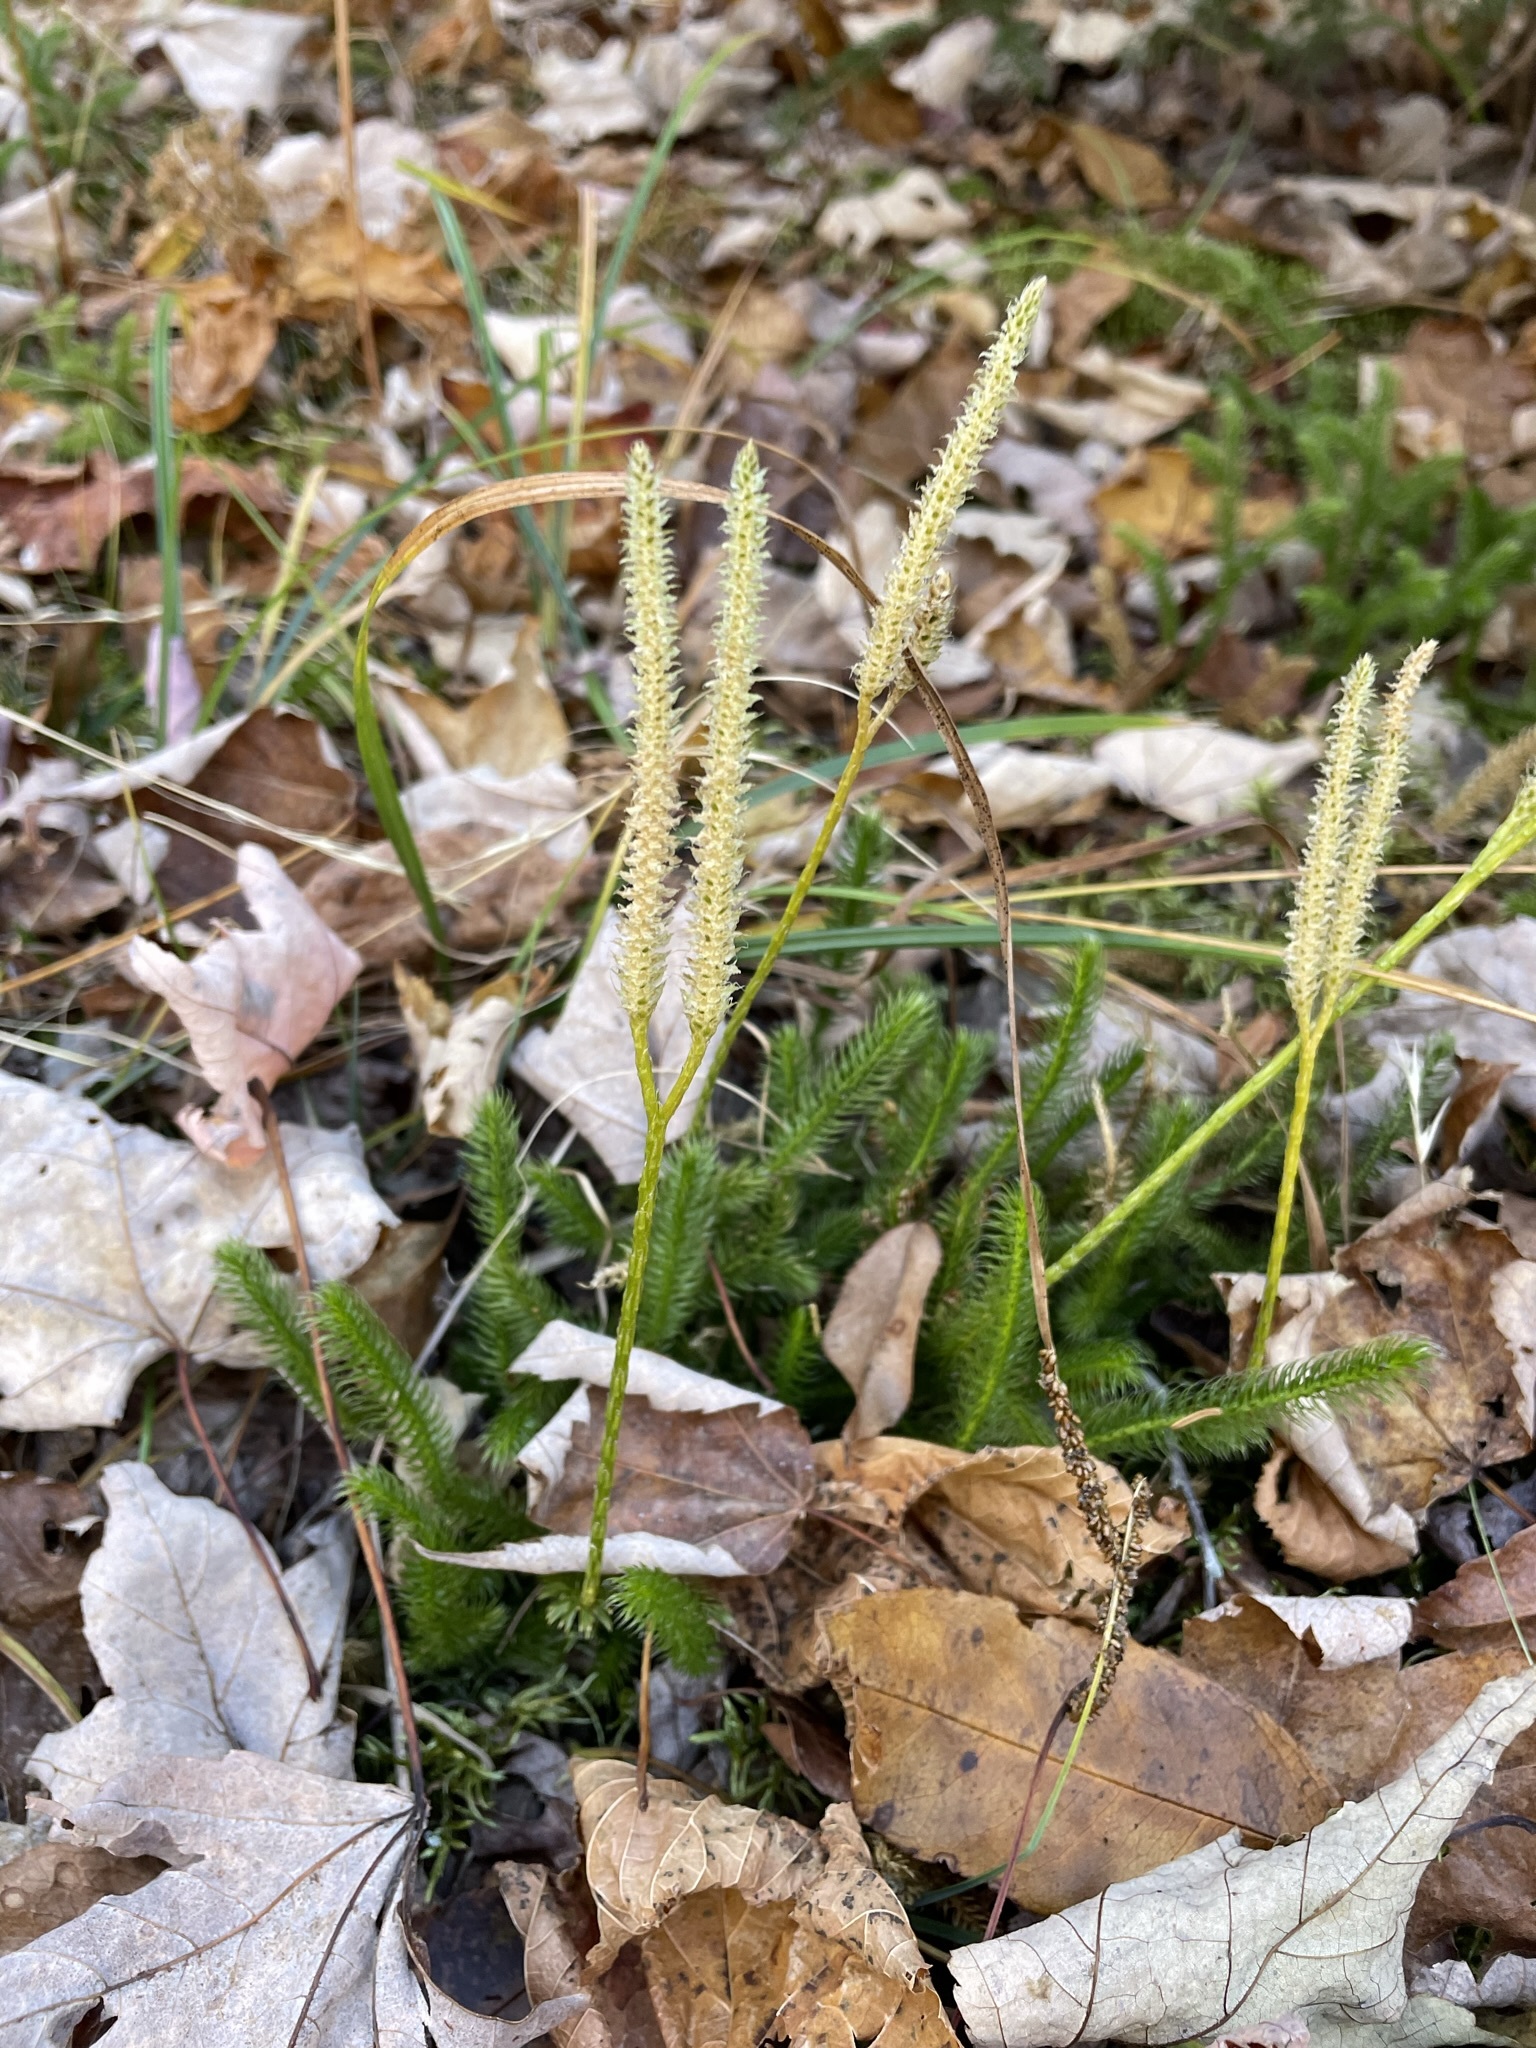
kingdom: Plantae
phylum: Tracheophyta
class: Lycopodiopsida
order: Lycopodiales
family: Lycopodiaceae
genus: Lycopodium
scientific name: Lycopodium clavatum
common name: Stag's-horn clubmoss
